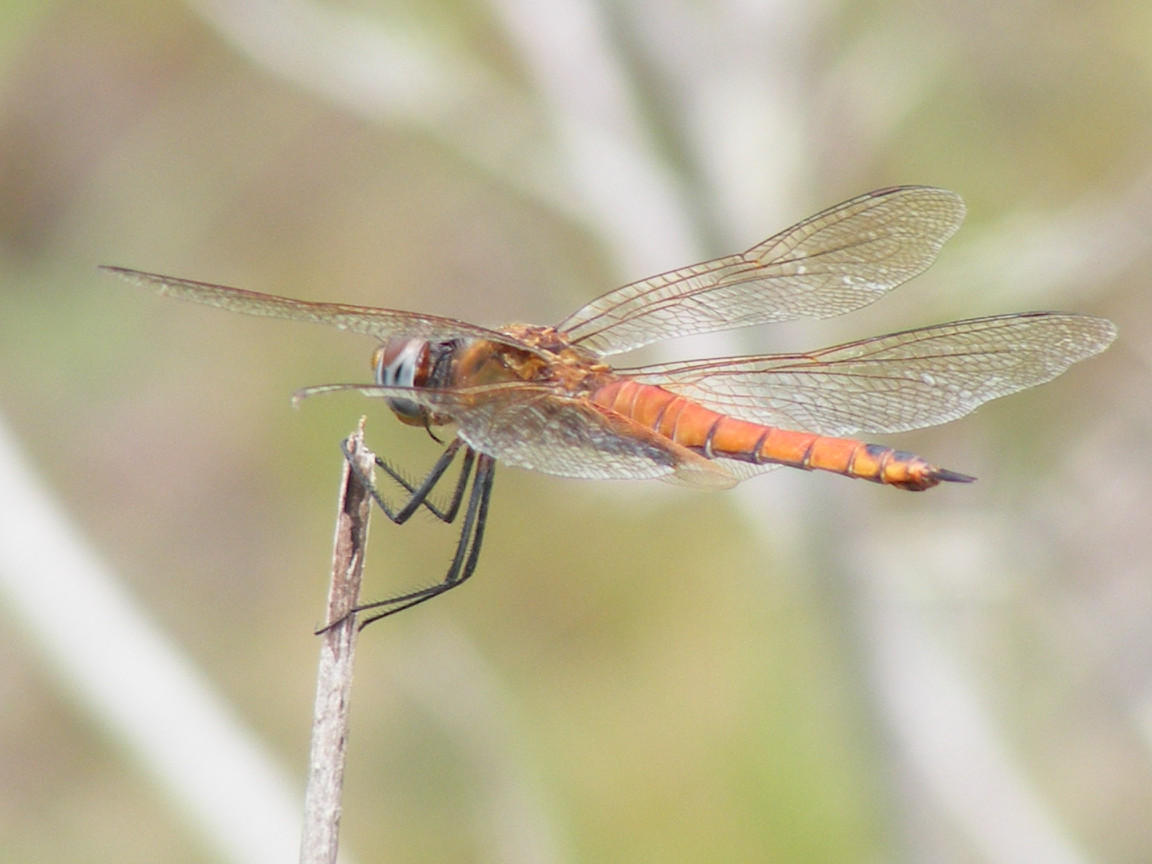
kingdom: Animalia
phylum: Arthropoda
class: Insecta
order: Odonata
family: Libellulidae
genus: Tramea
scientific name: Tramea limbata
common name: Ferruginous glider
